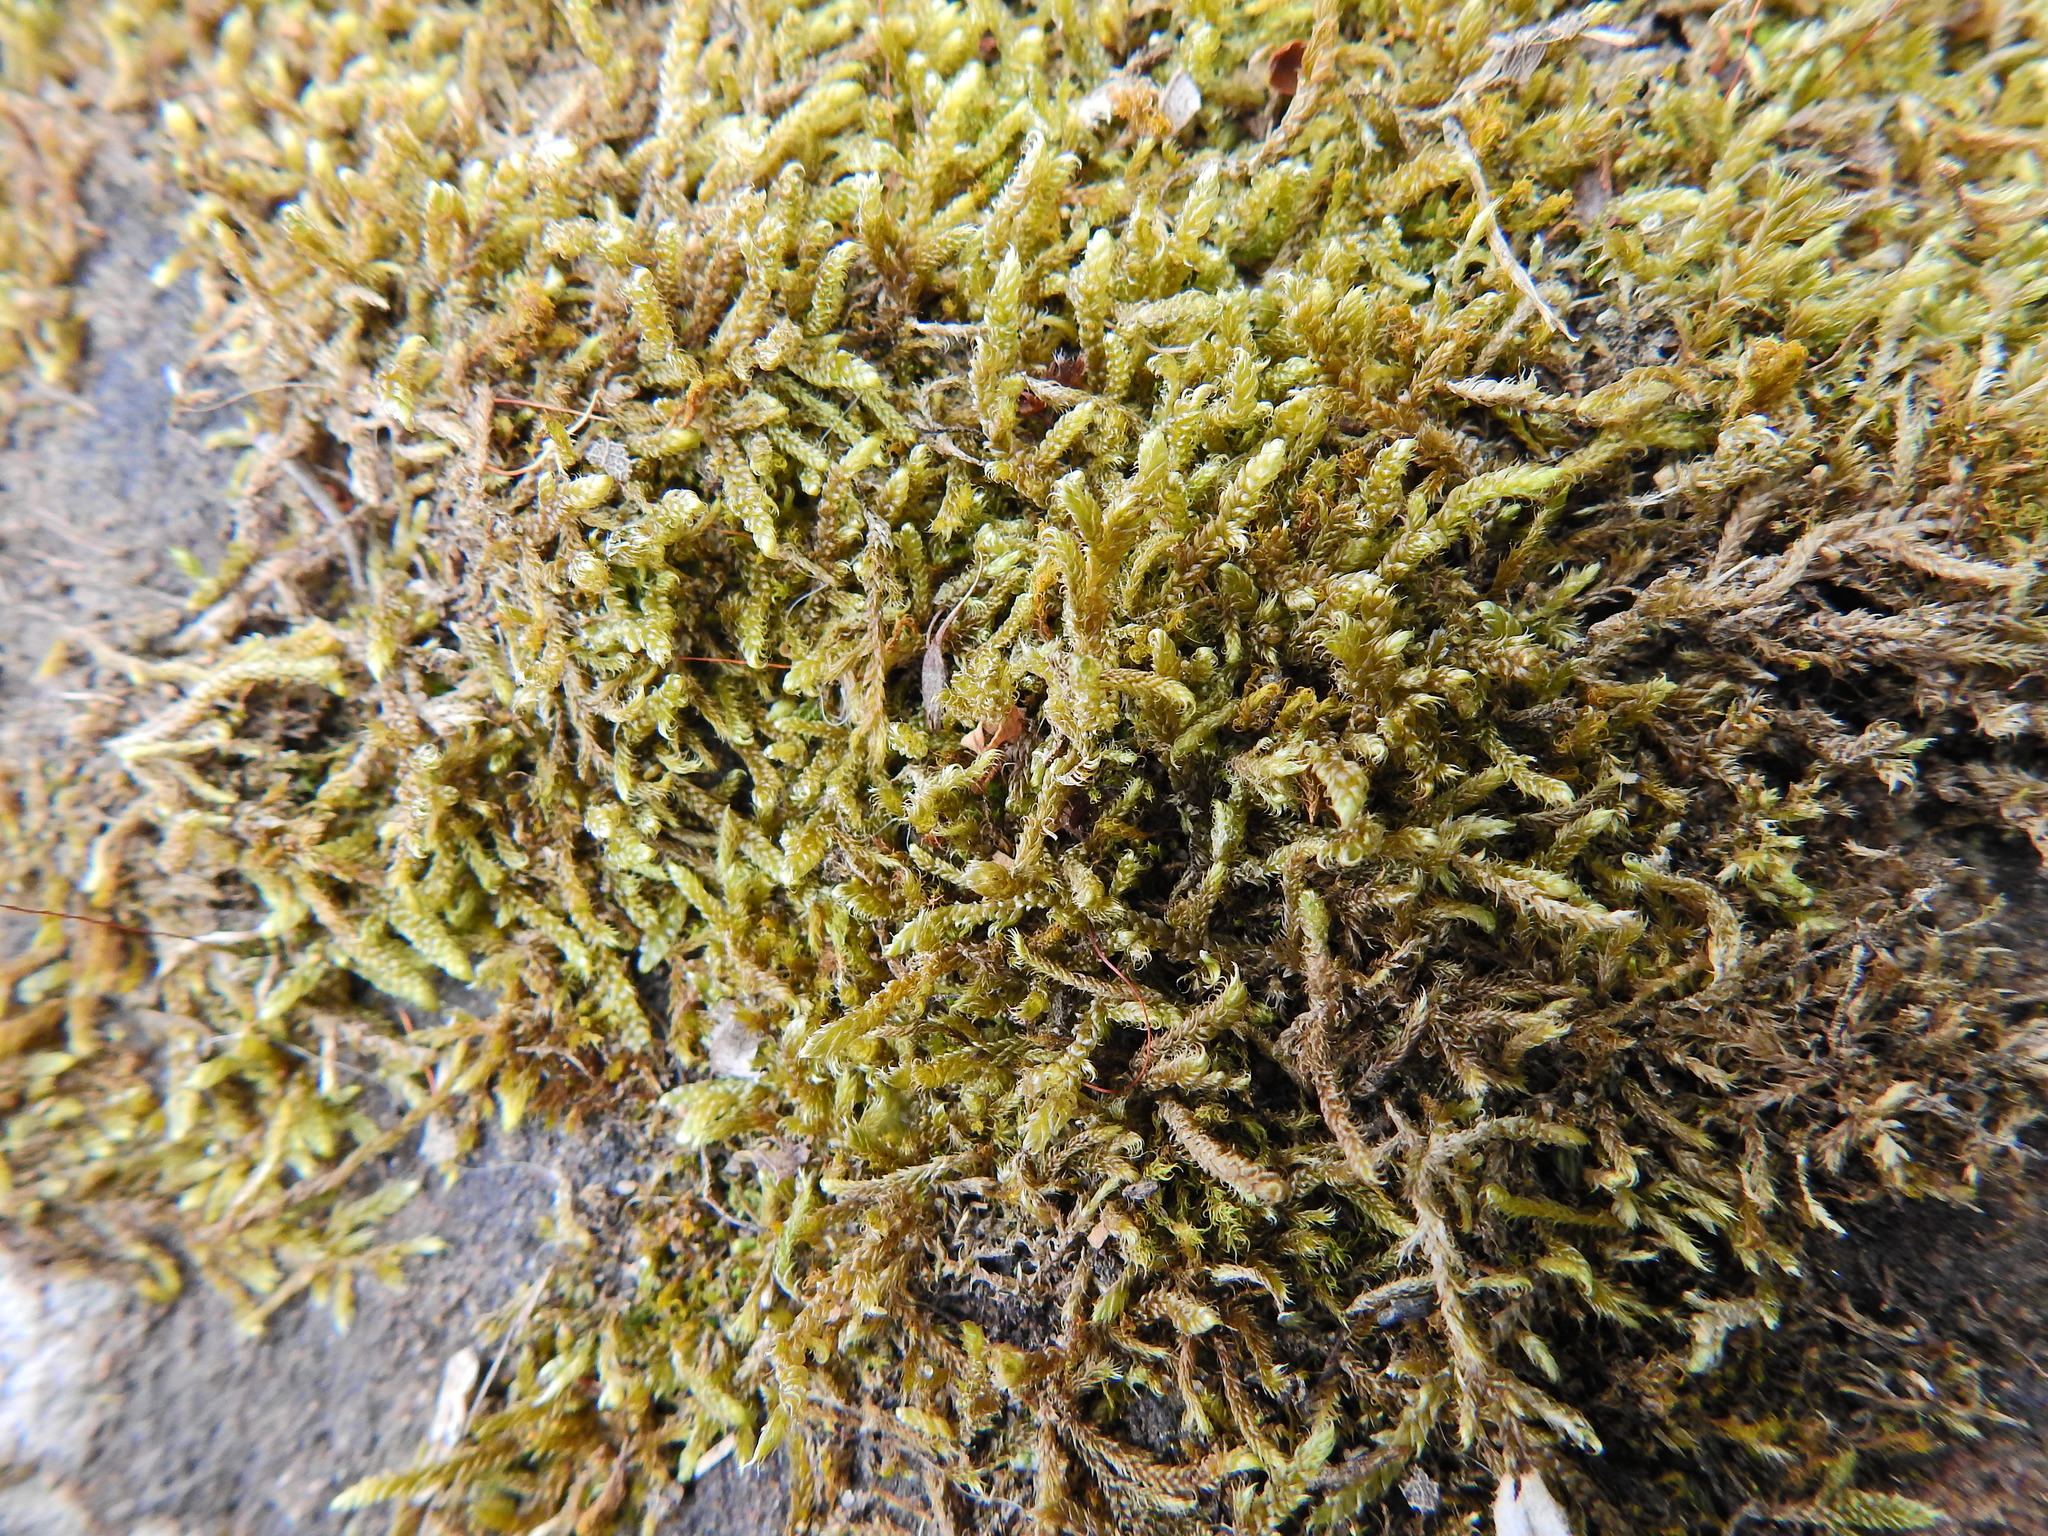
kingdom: Plantae
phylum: Bryophyta
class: Bryopsida
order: Hypnales
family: Hypnaceae
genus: Hypnum
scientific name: Hypnum cupressiforme
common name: Cypress-leaved plait-moss
